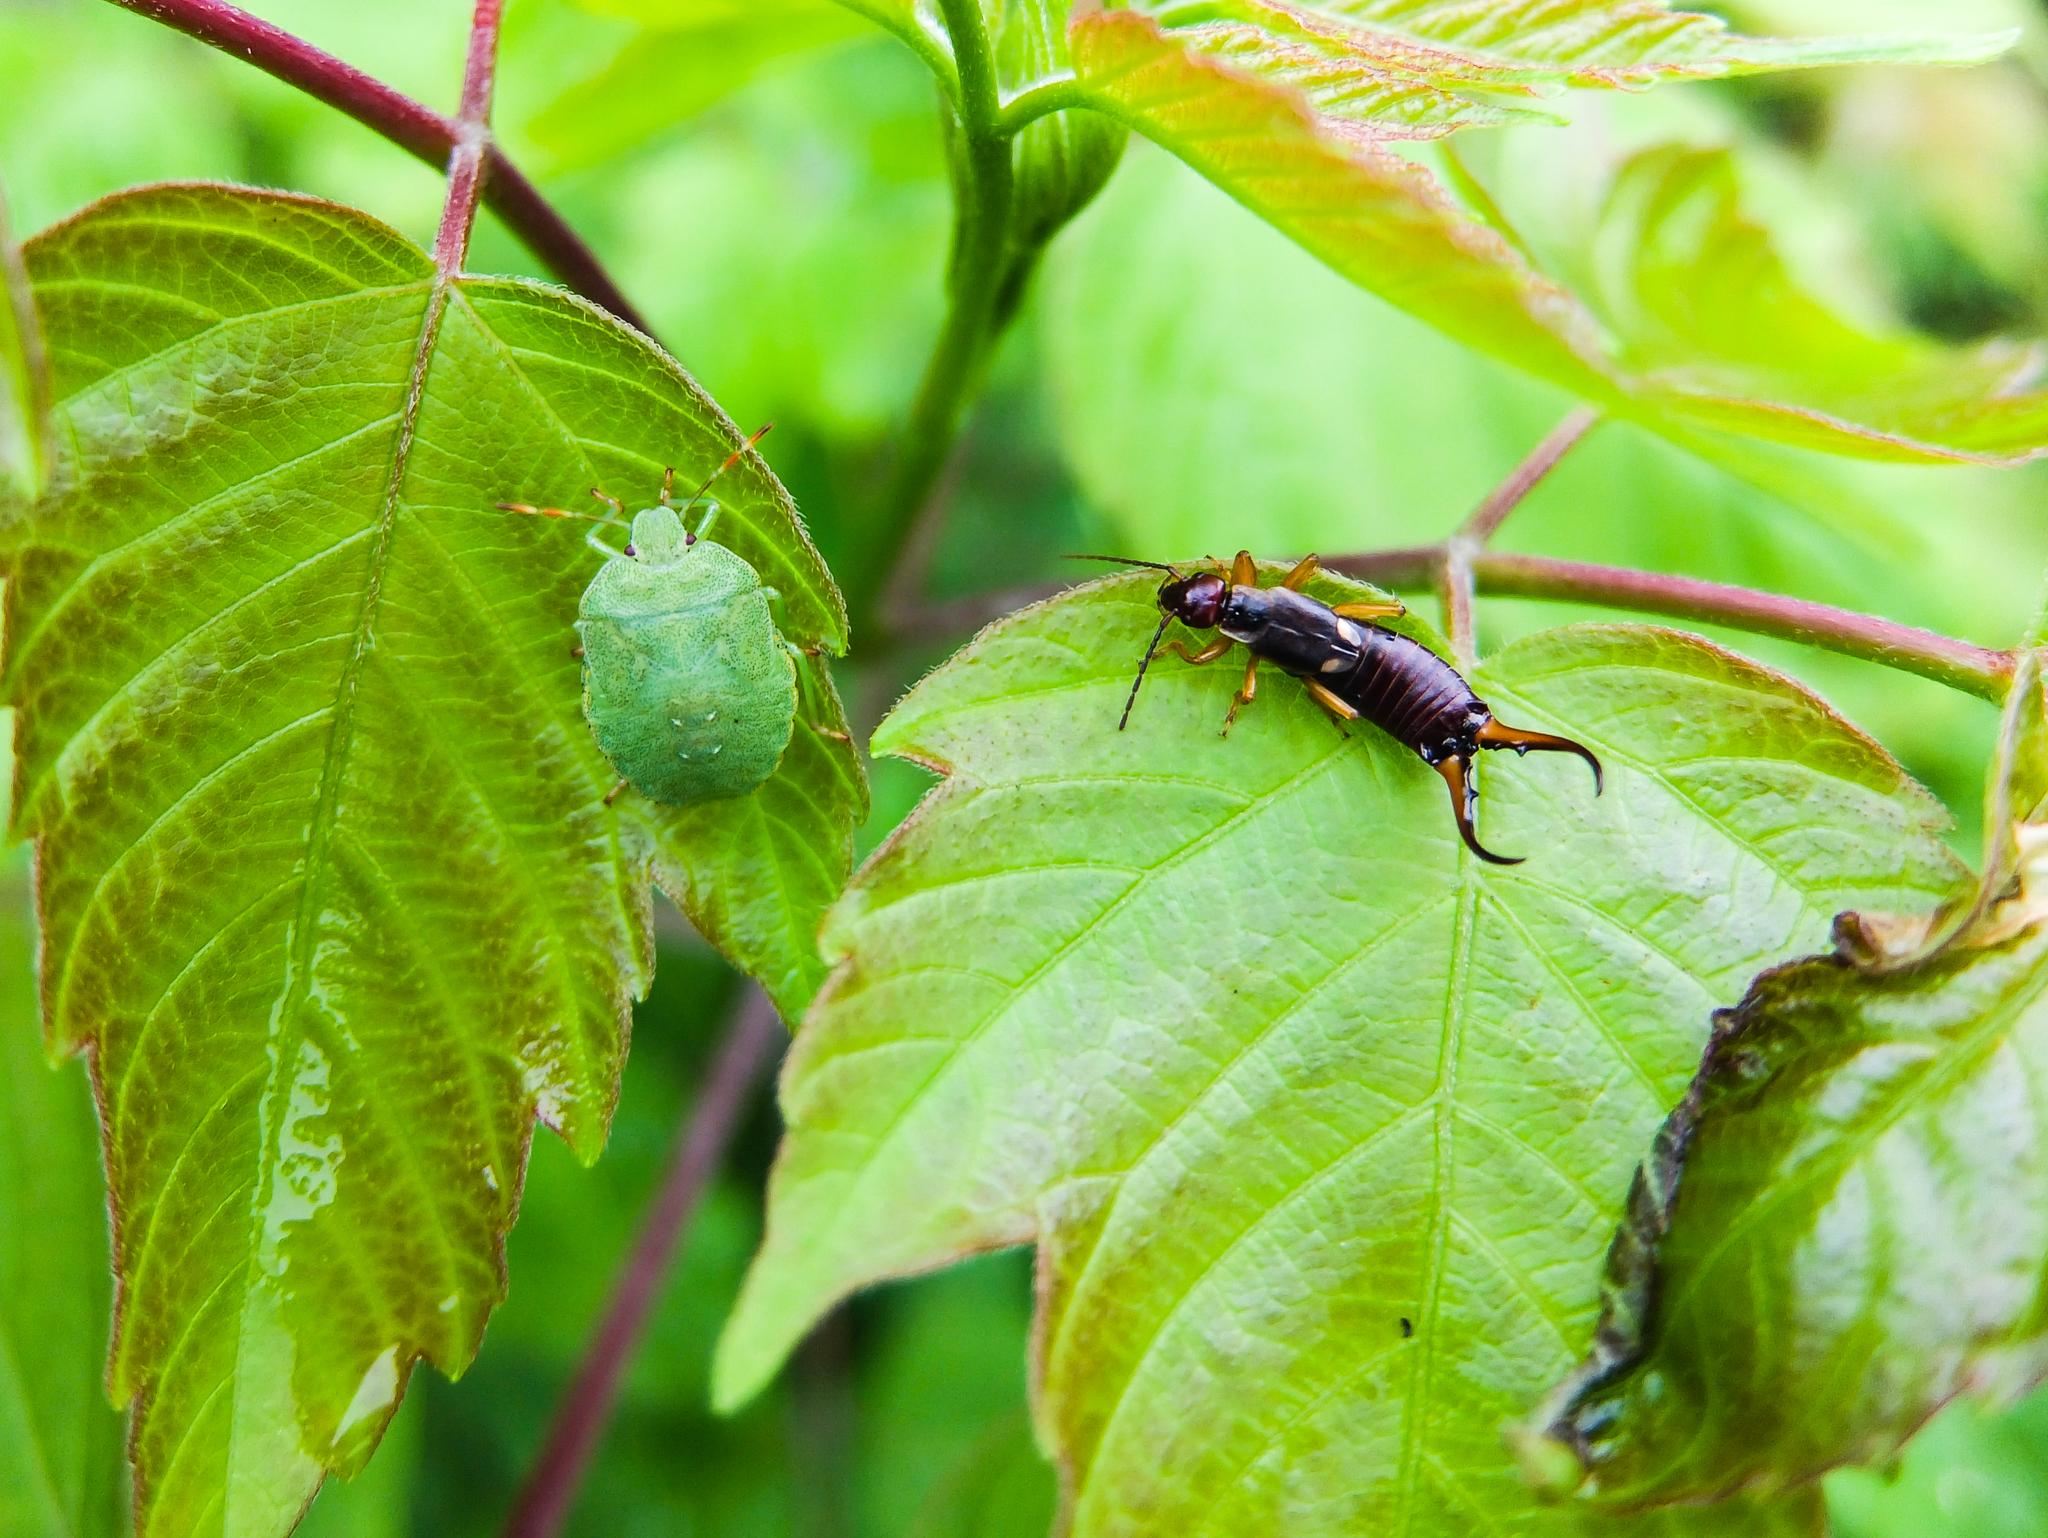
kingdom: Animalia
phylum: Arthropoda
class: Insecta
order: Dermaptera
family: Forficulidae
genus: Forficula
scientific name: Forficula
